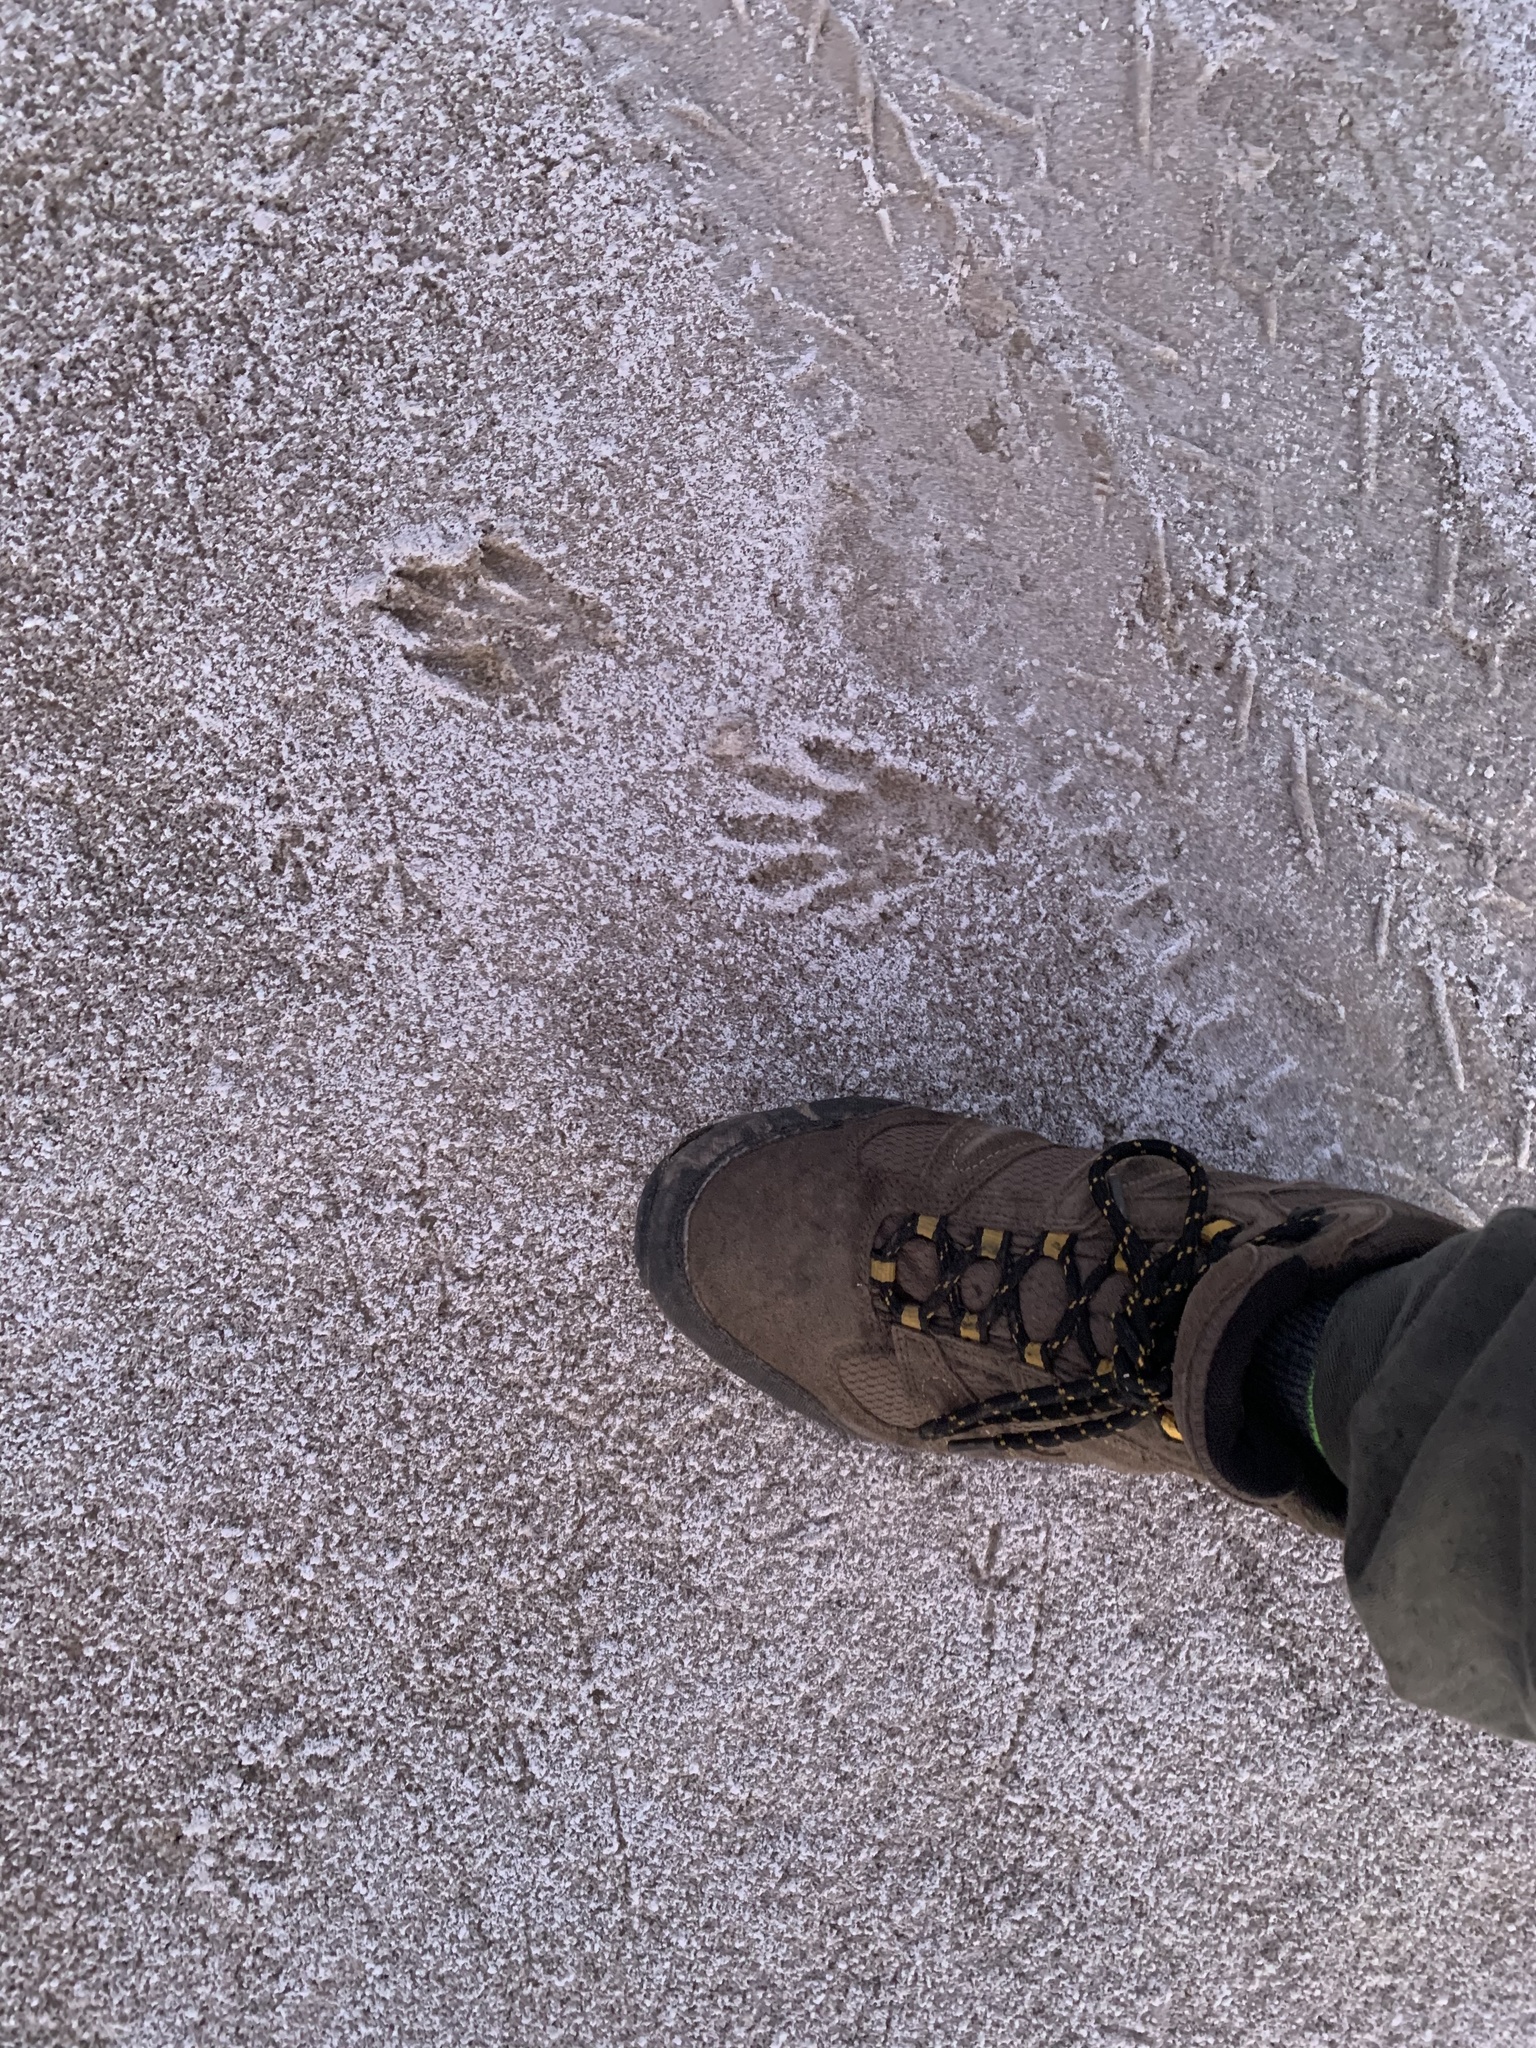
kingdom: Animalia
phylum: Chordata
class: Mammalia
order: Carnivora
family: Procyonidae
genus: Procyon
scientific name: Procyon cancrivorus
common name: Crab-eating raccoon
